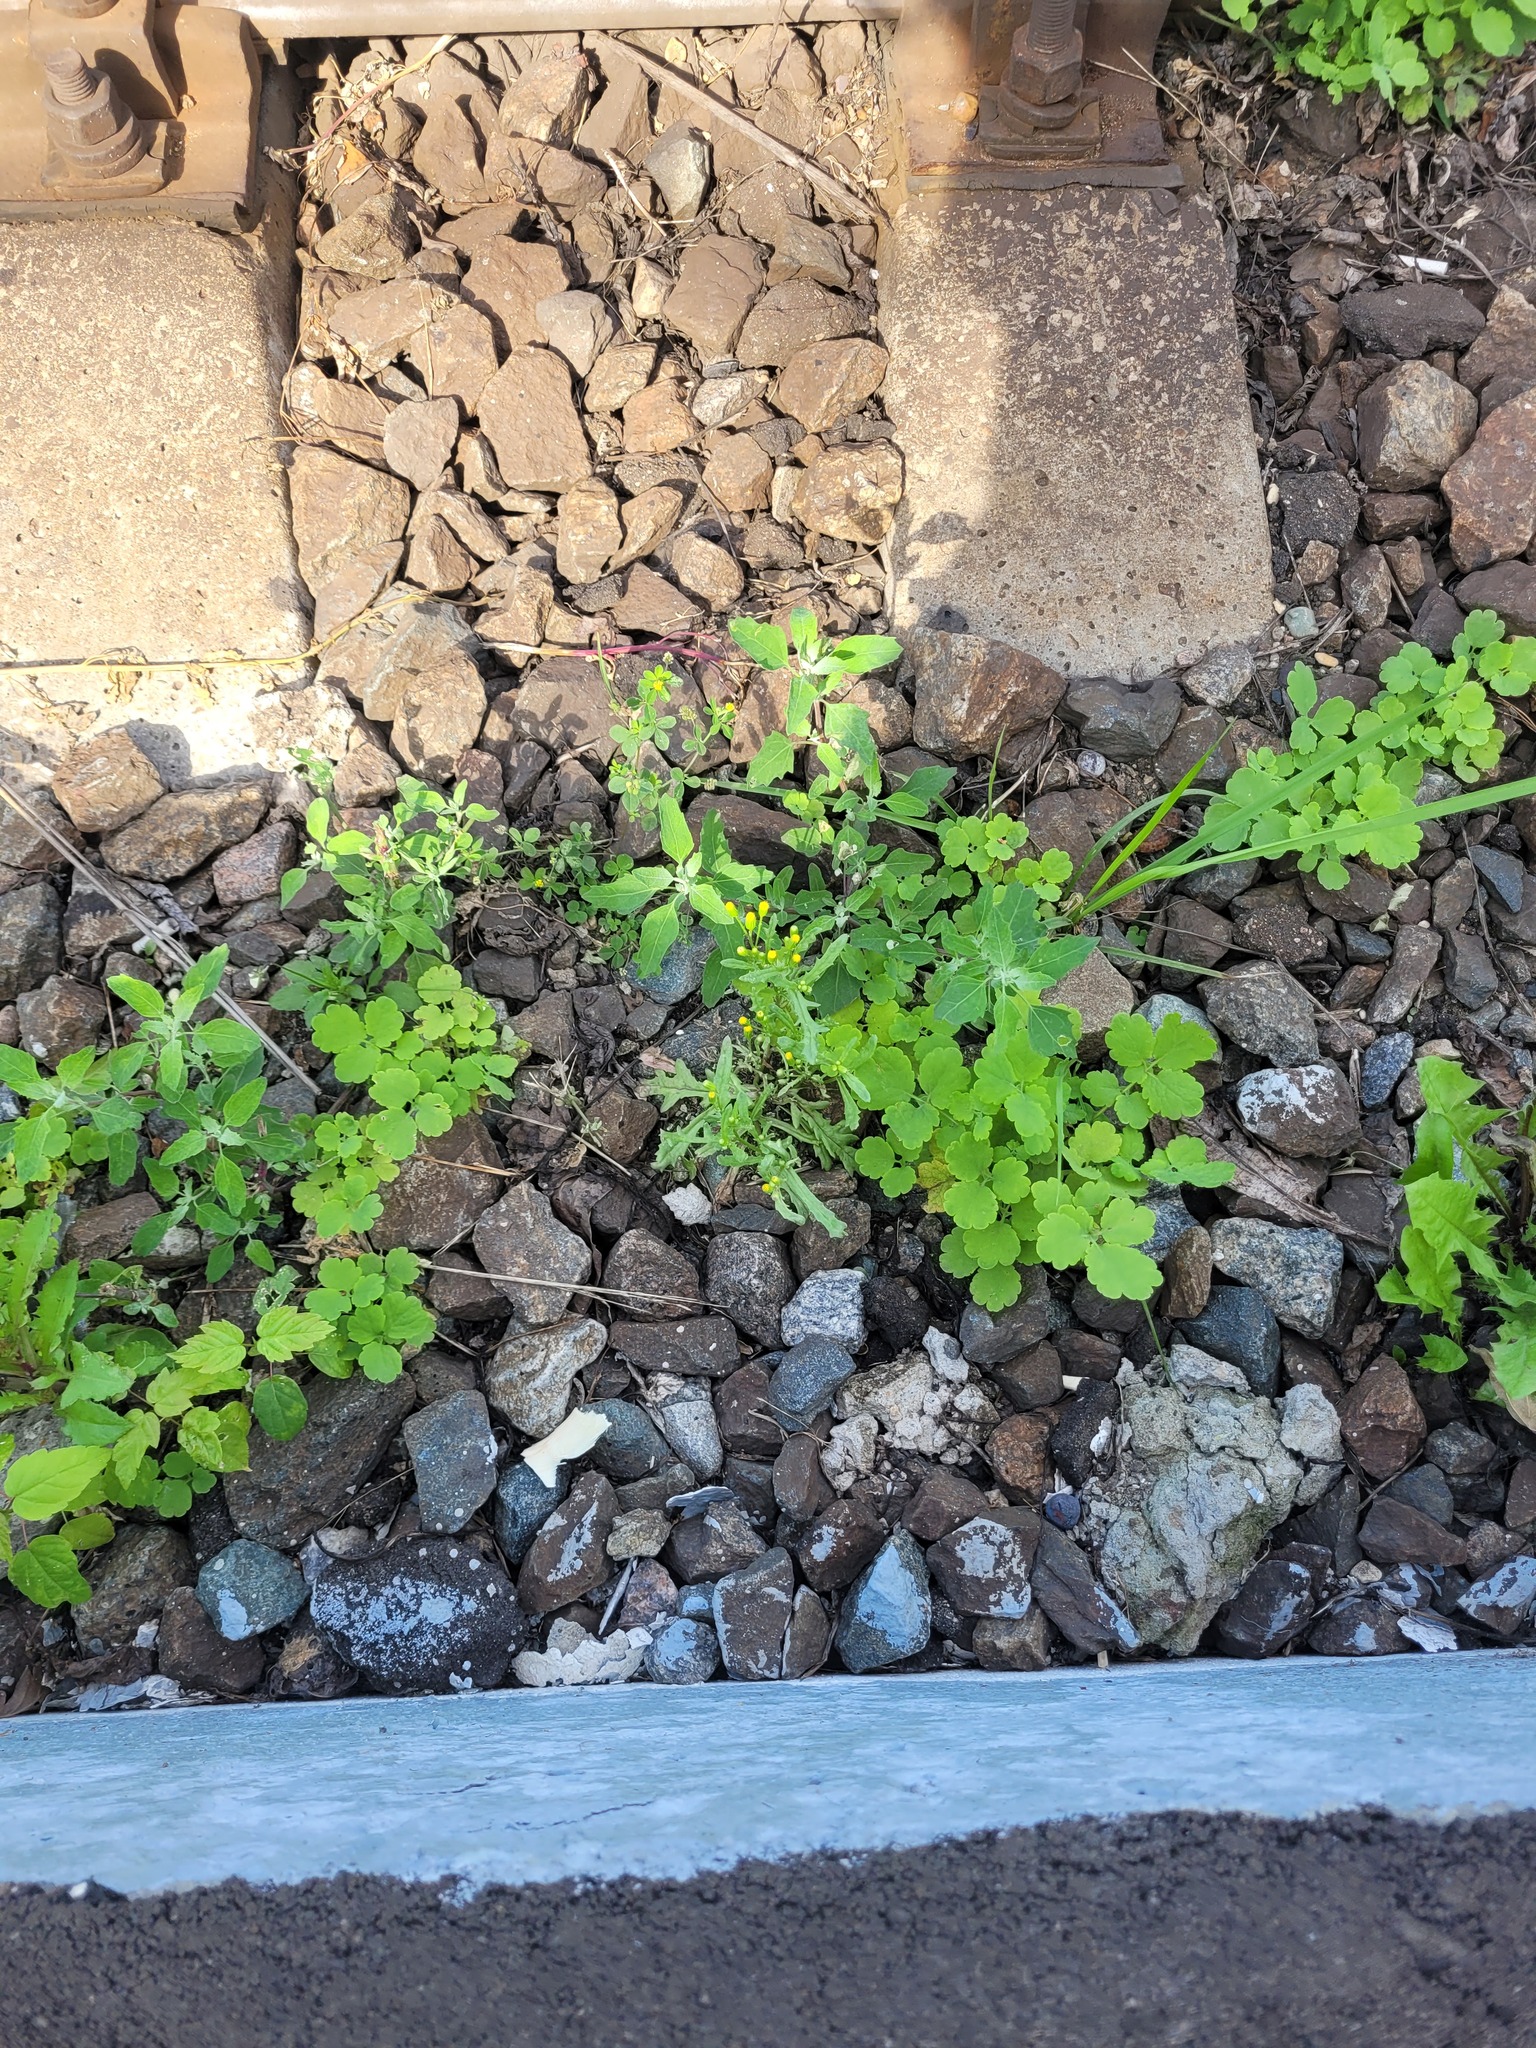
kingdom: Plantae
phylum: Tracheophyta
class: Magnoliopsida
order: Asterales
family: Asteraceae
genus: Senecio
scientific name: Senecio dubitabilis
